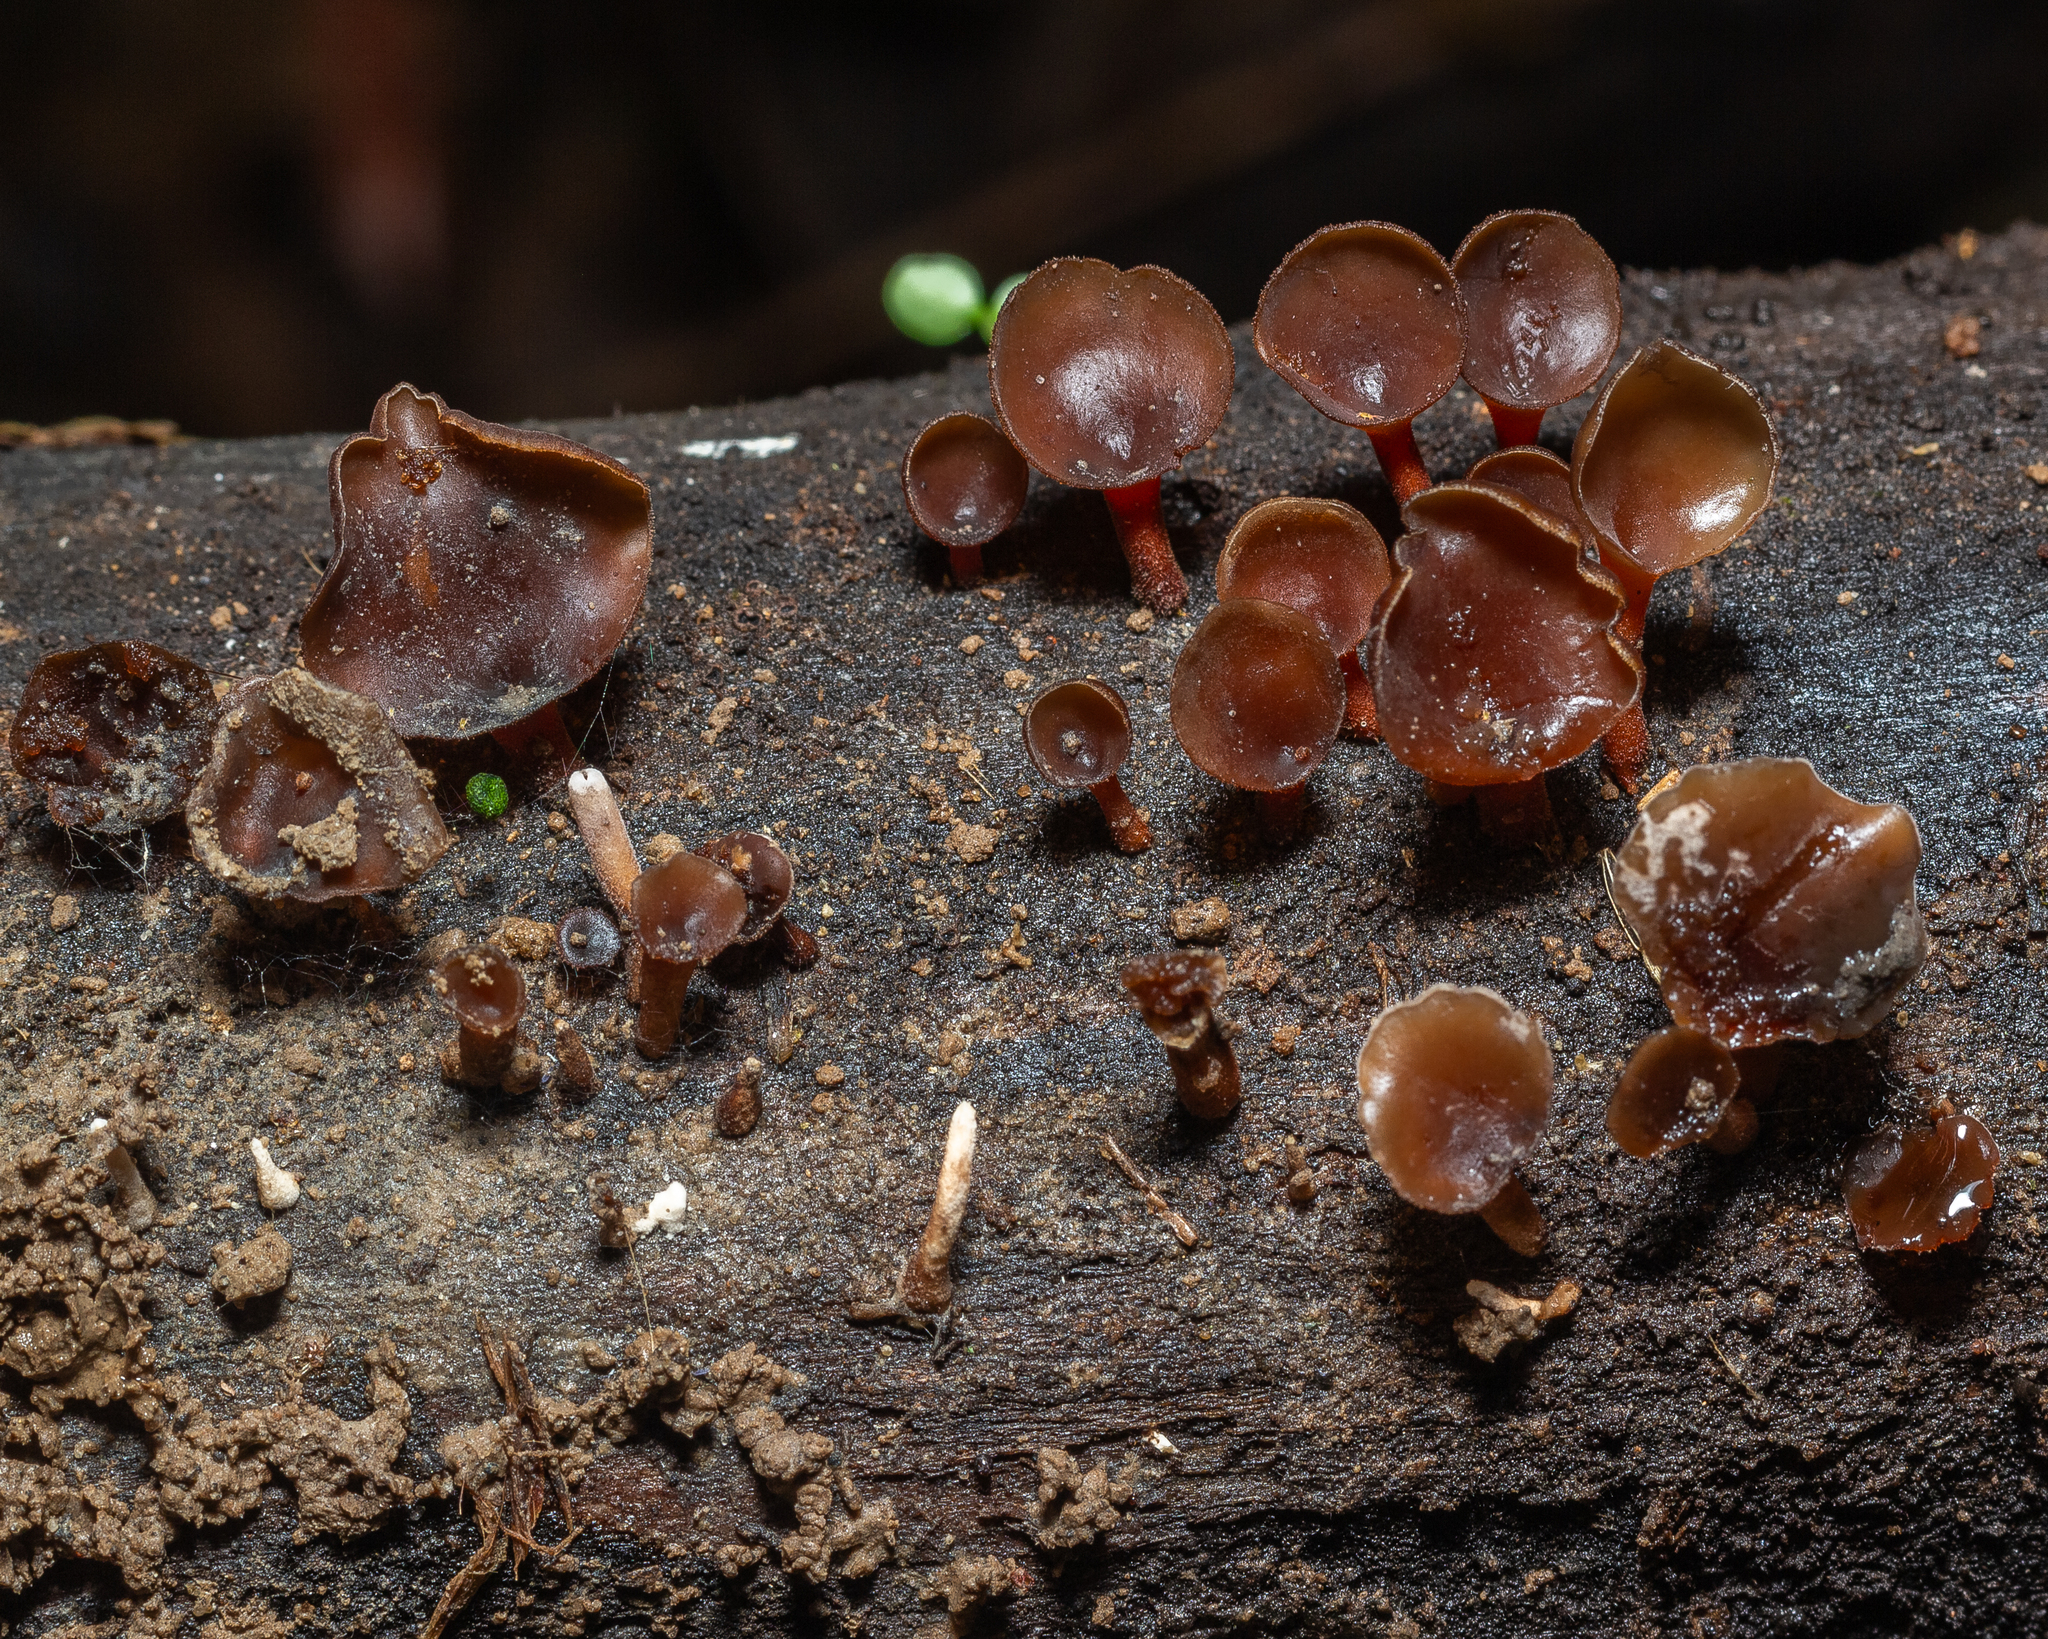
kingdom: Fungi
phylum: Basidiomycota
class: Dacrymycetes
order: Dacrymycetales
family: Dacrymycetaceae
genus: Dacryopinax
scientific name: Dacryopinax elegans
